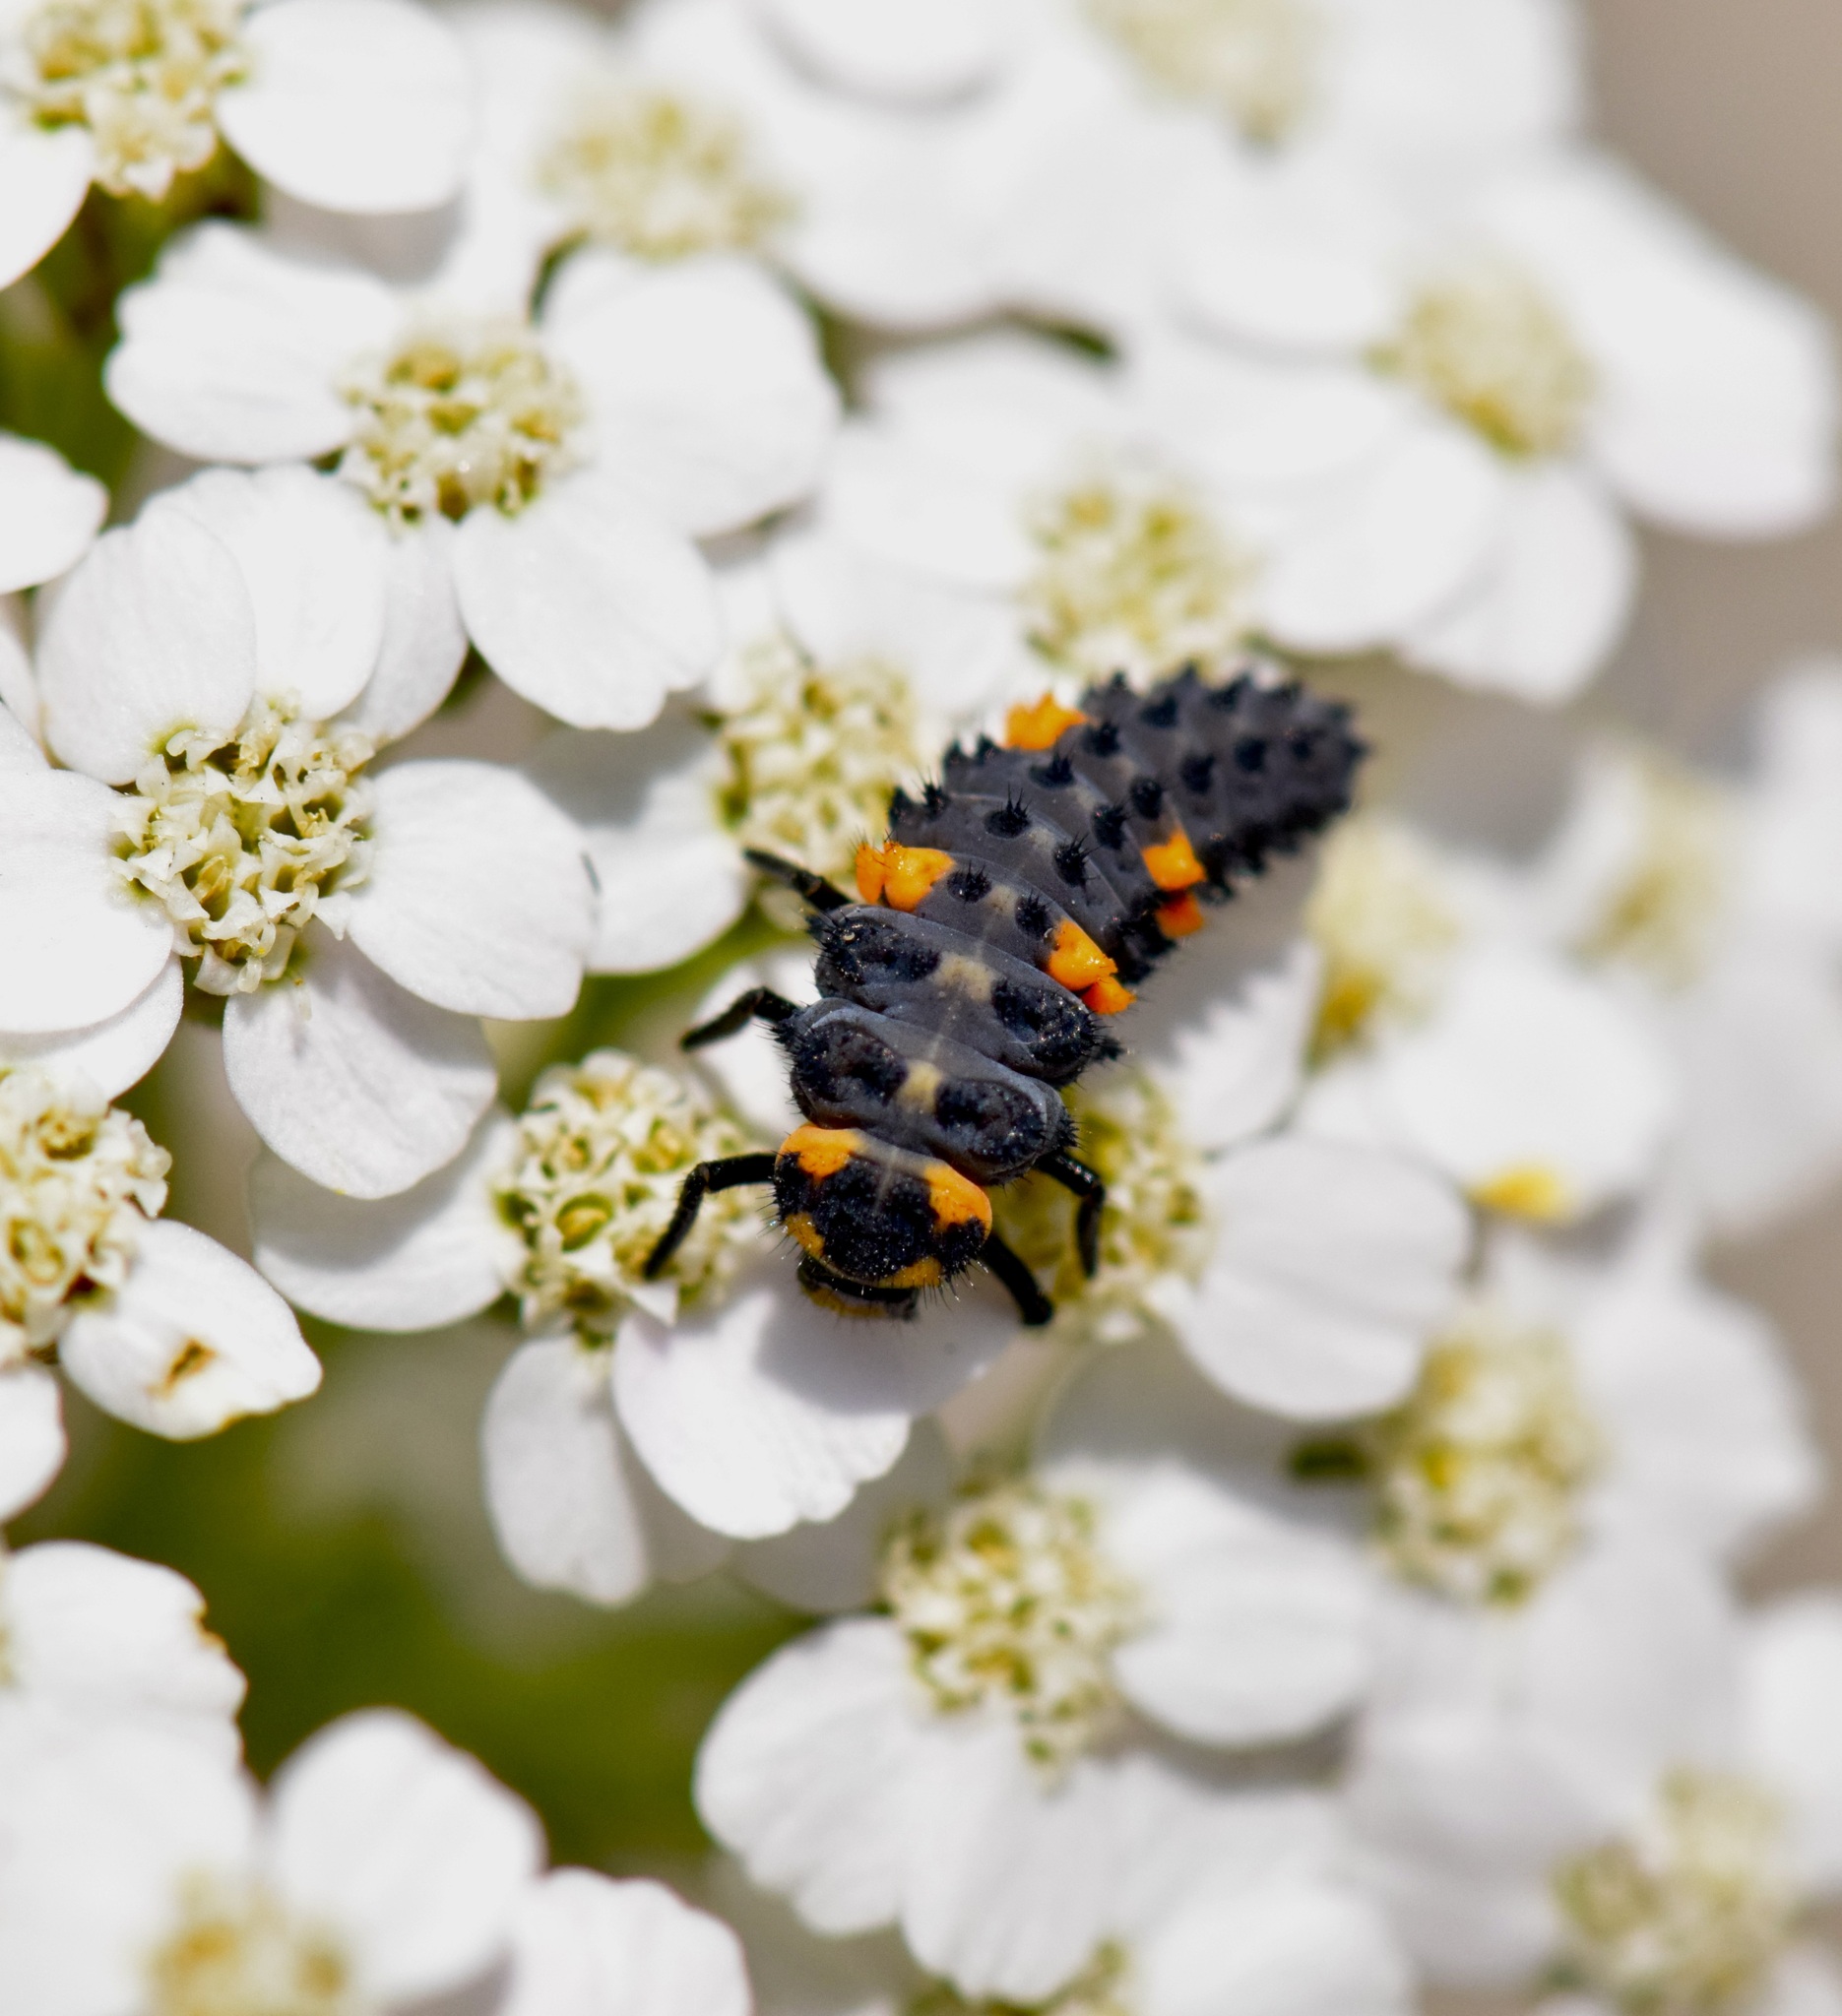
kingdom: Animalia
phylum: Arthropoda
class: Insecta
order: Coleoptera
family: Coccinellidae
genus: Coccinella
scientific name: Coccinella septempunctata
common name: Sevenspotted lady beetle
